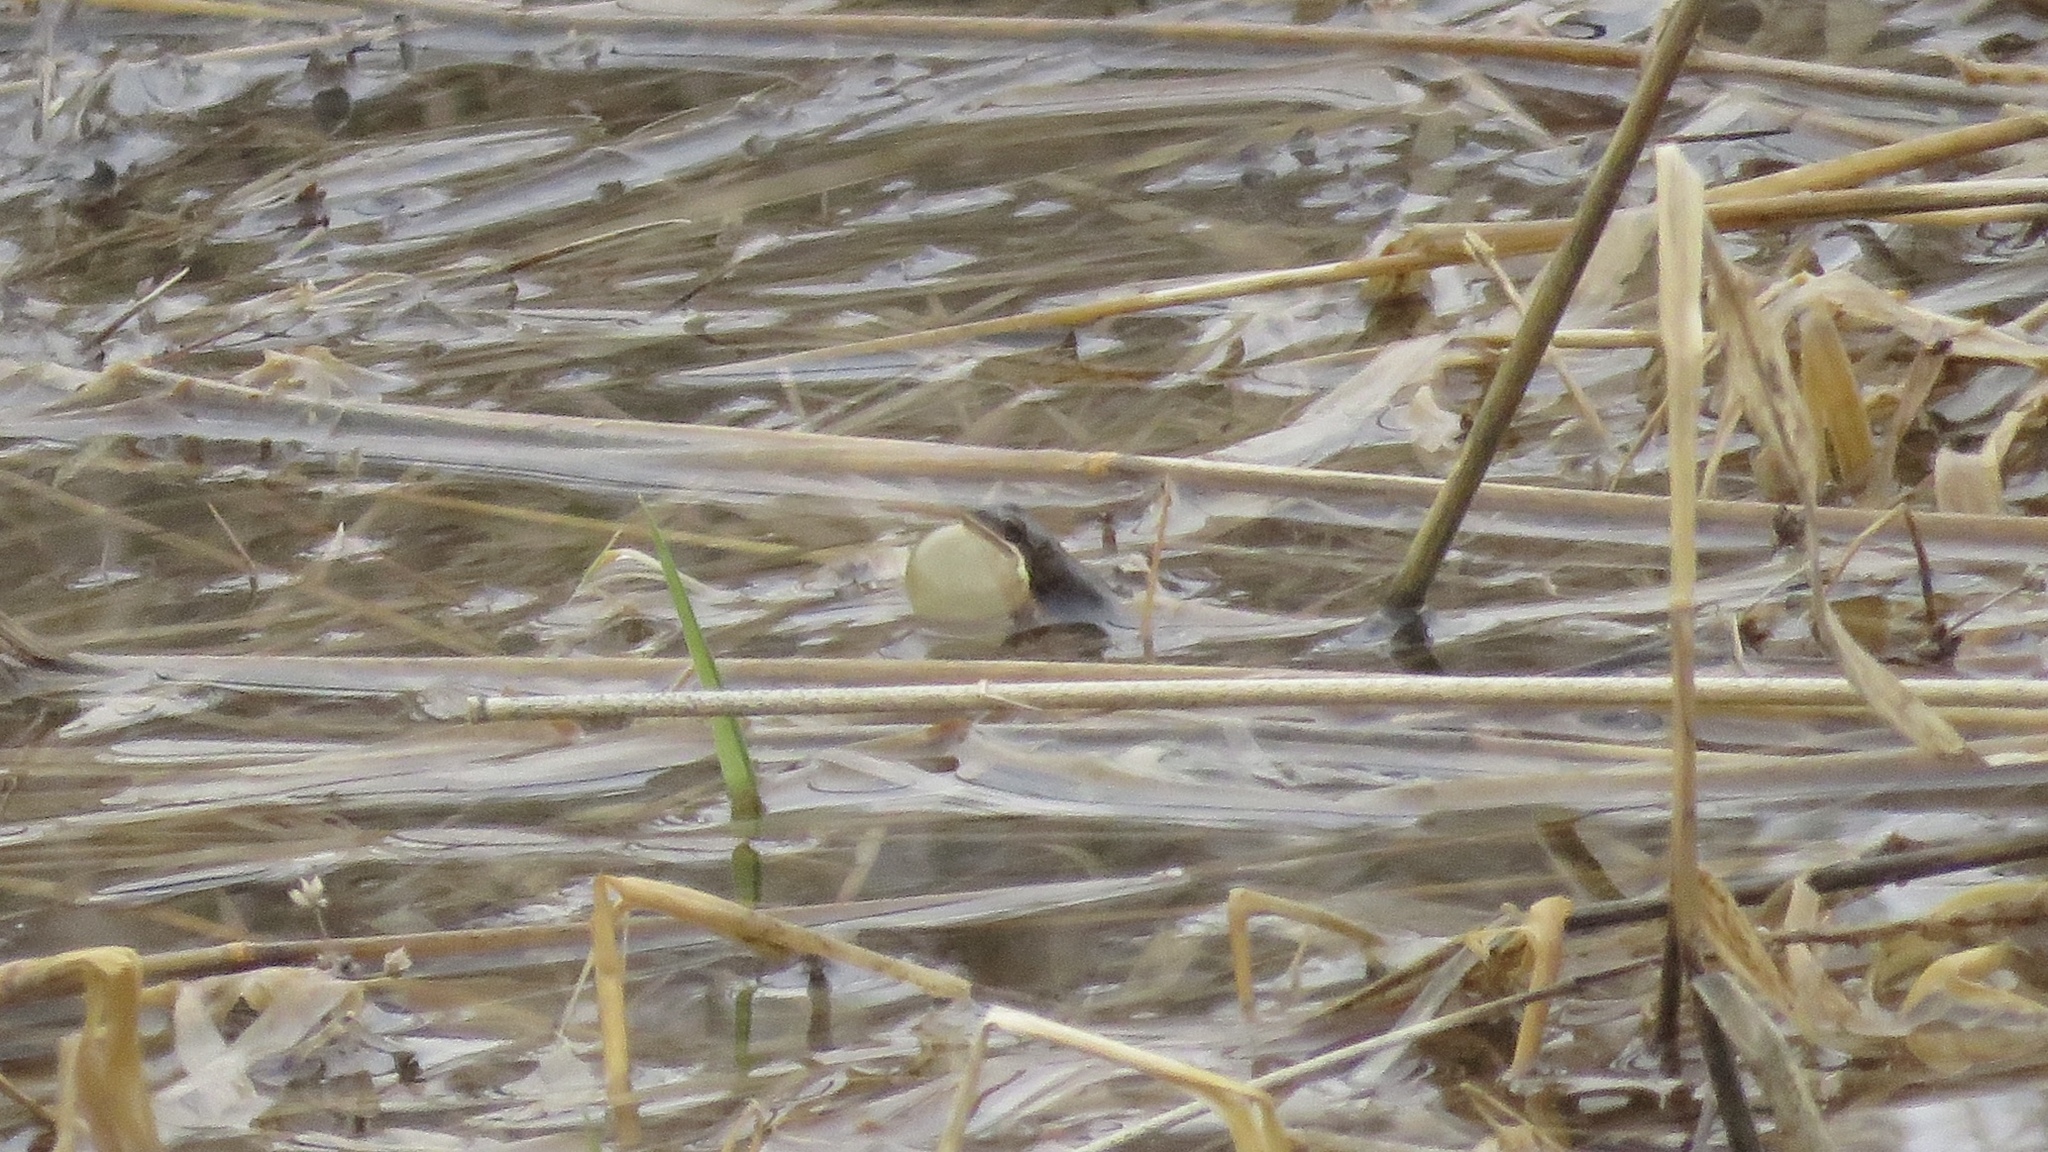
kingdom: Animalia
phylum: Chordata
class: Amphibia
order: Anura
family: Hylidae
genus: Pseudacris
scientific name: Pseudacris maculata
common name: Boreal chorus frog
